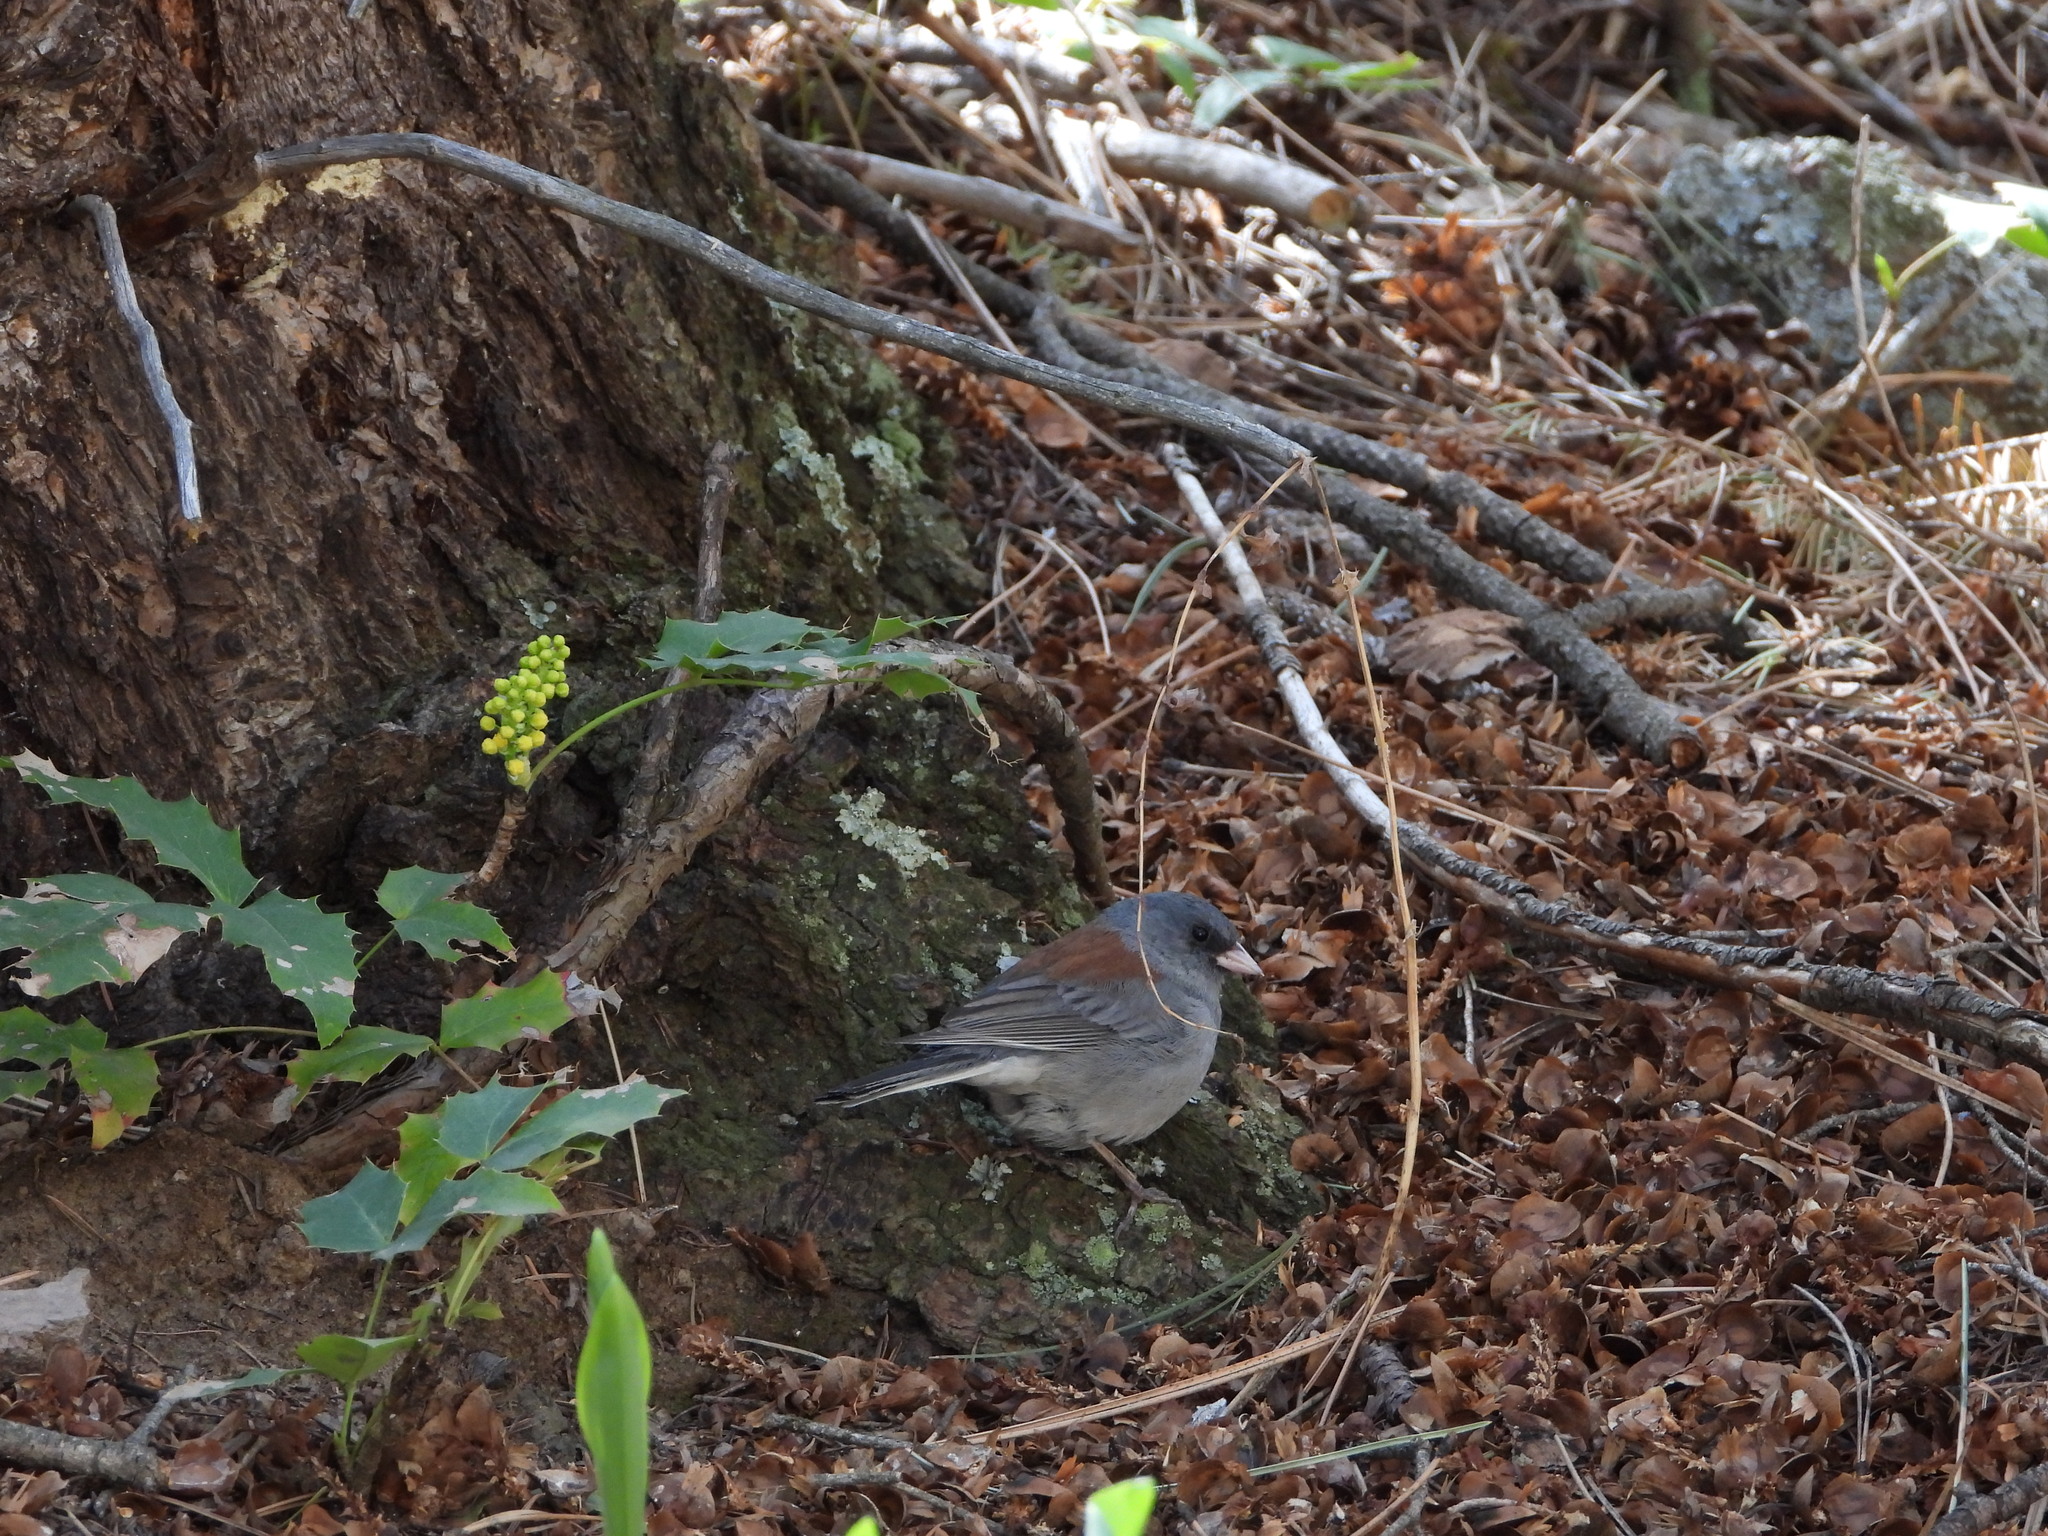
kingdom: Animalia
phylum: Chordata
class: Aves
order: Passeriformes
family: Passerellidae
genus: Junco
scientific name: Junco hyemalis
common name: Dark-eyed junco
